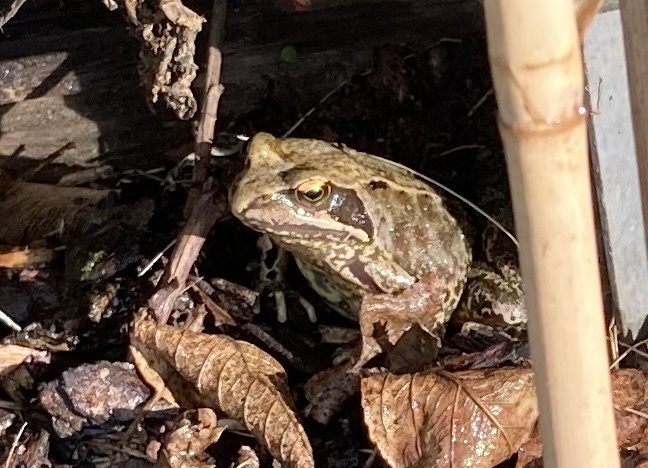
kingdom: Animalia
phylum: Chordata
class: Amphibia
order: Anura
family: Ranidae
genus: Rana
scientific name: Rana temporaria
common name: Common frog
